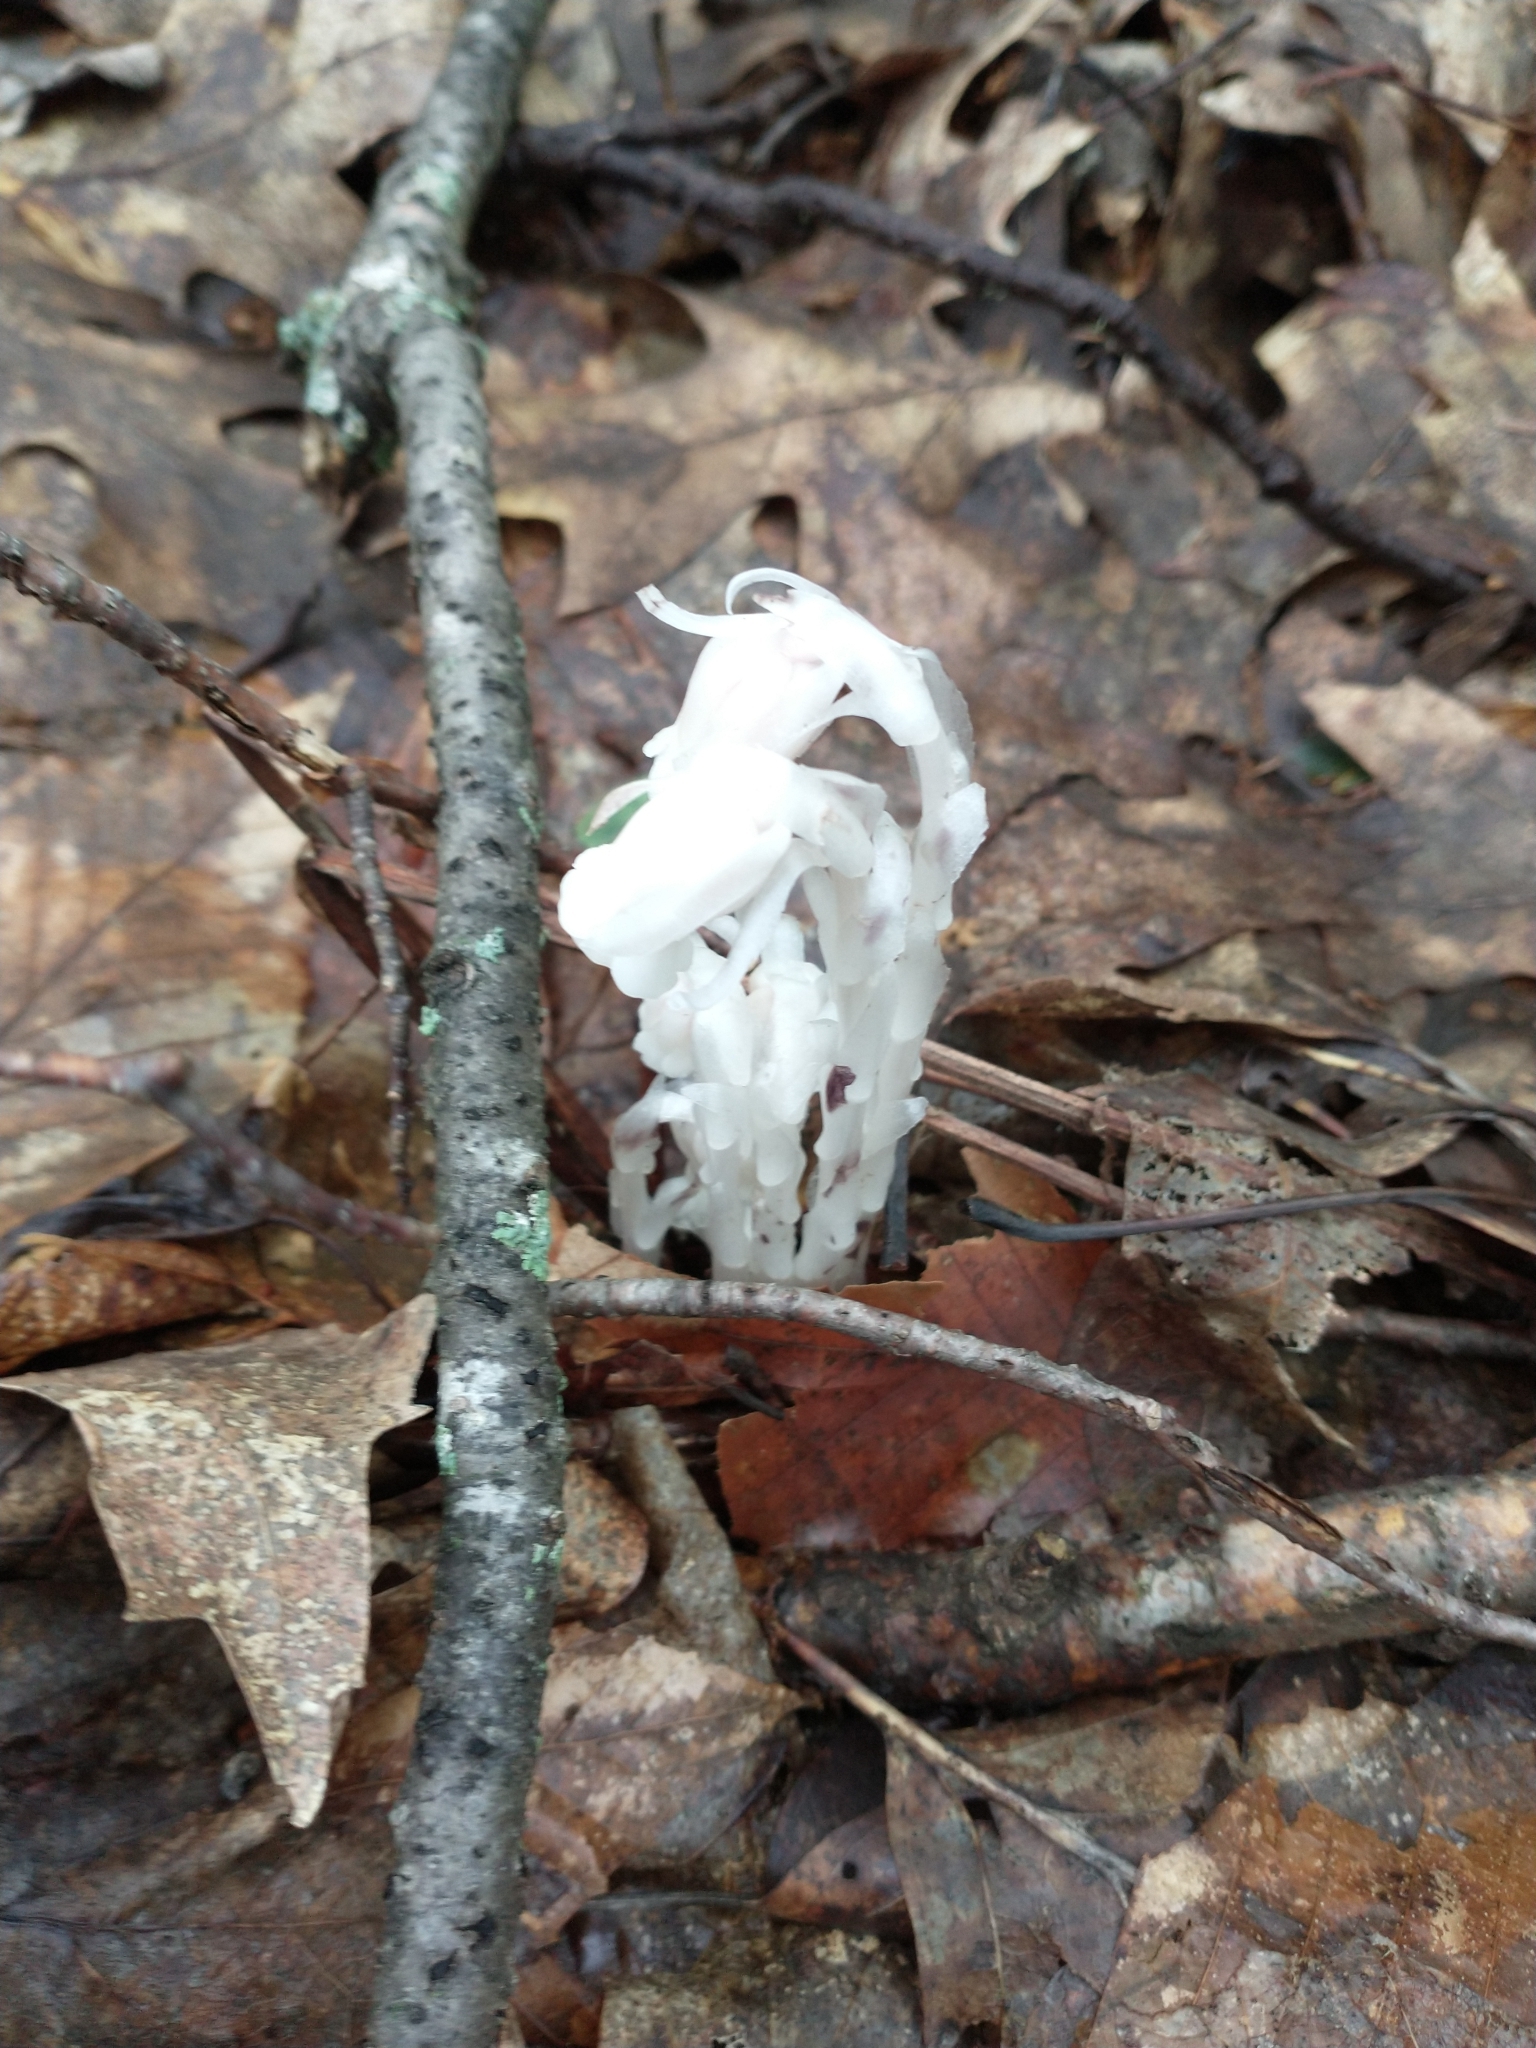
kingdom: Plantae
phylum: Tracheophyta
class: Magnoliopsida
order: Ericales
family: Ericaceae
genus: Monotropa
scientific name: Monotropa uniflora
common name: Convulsion root
